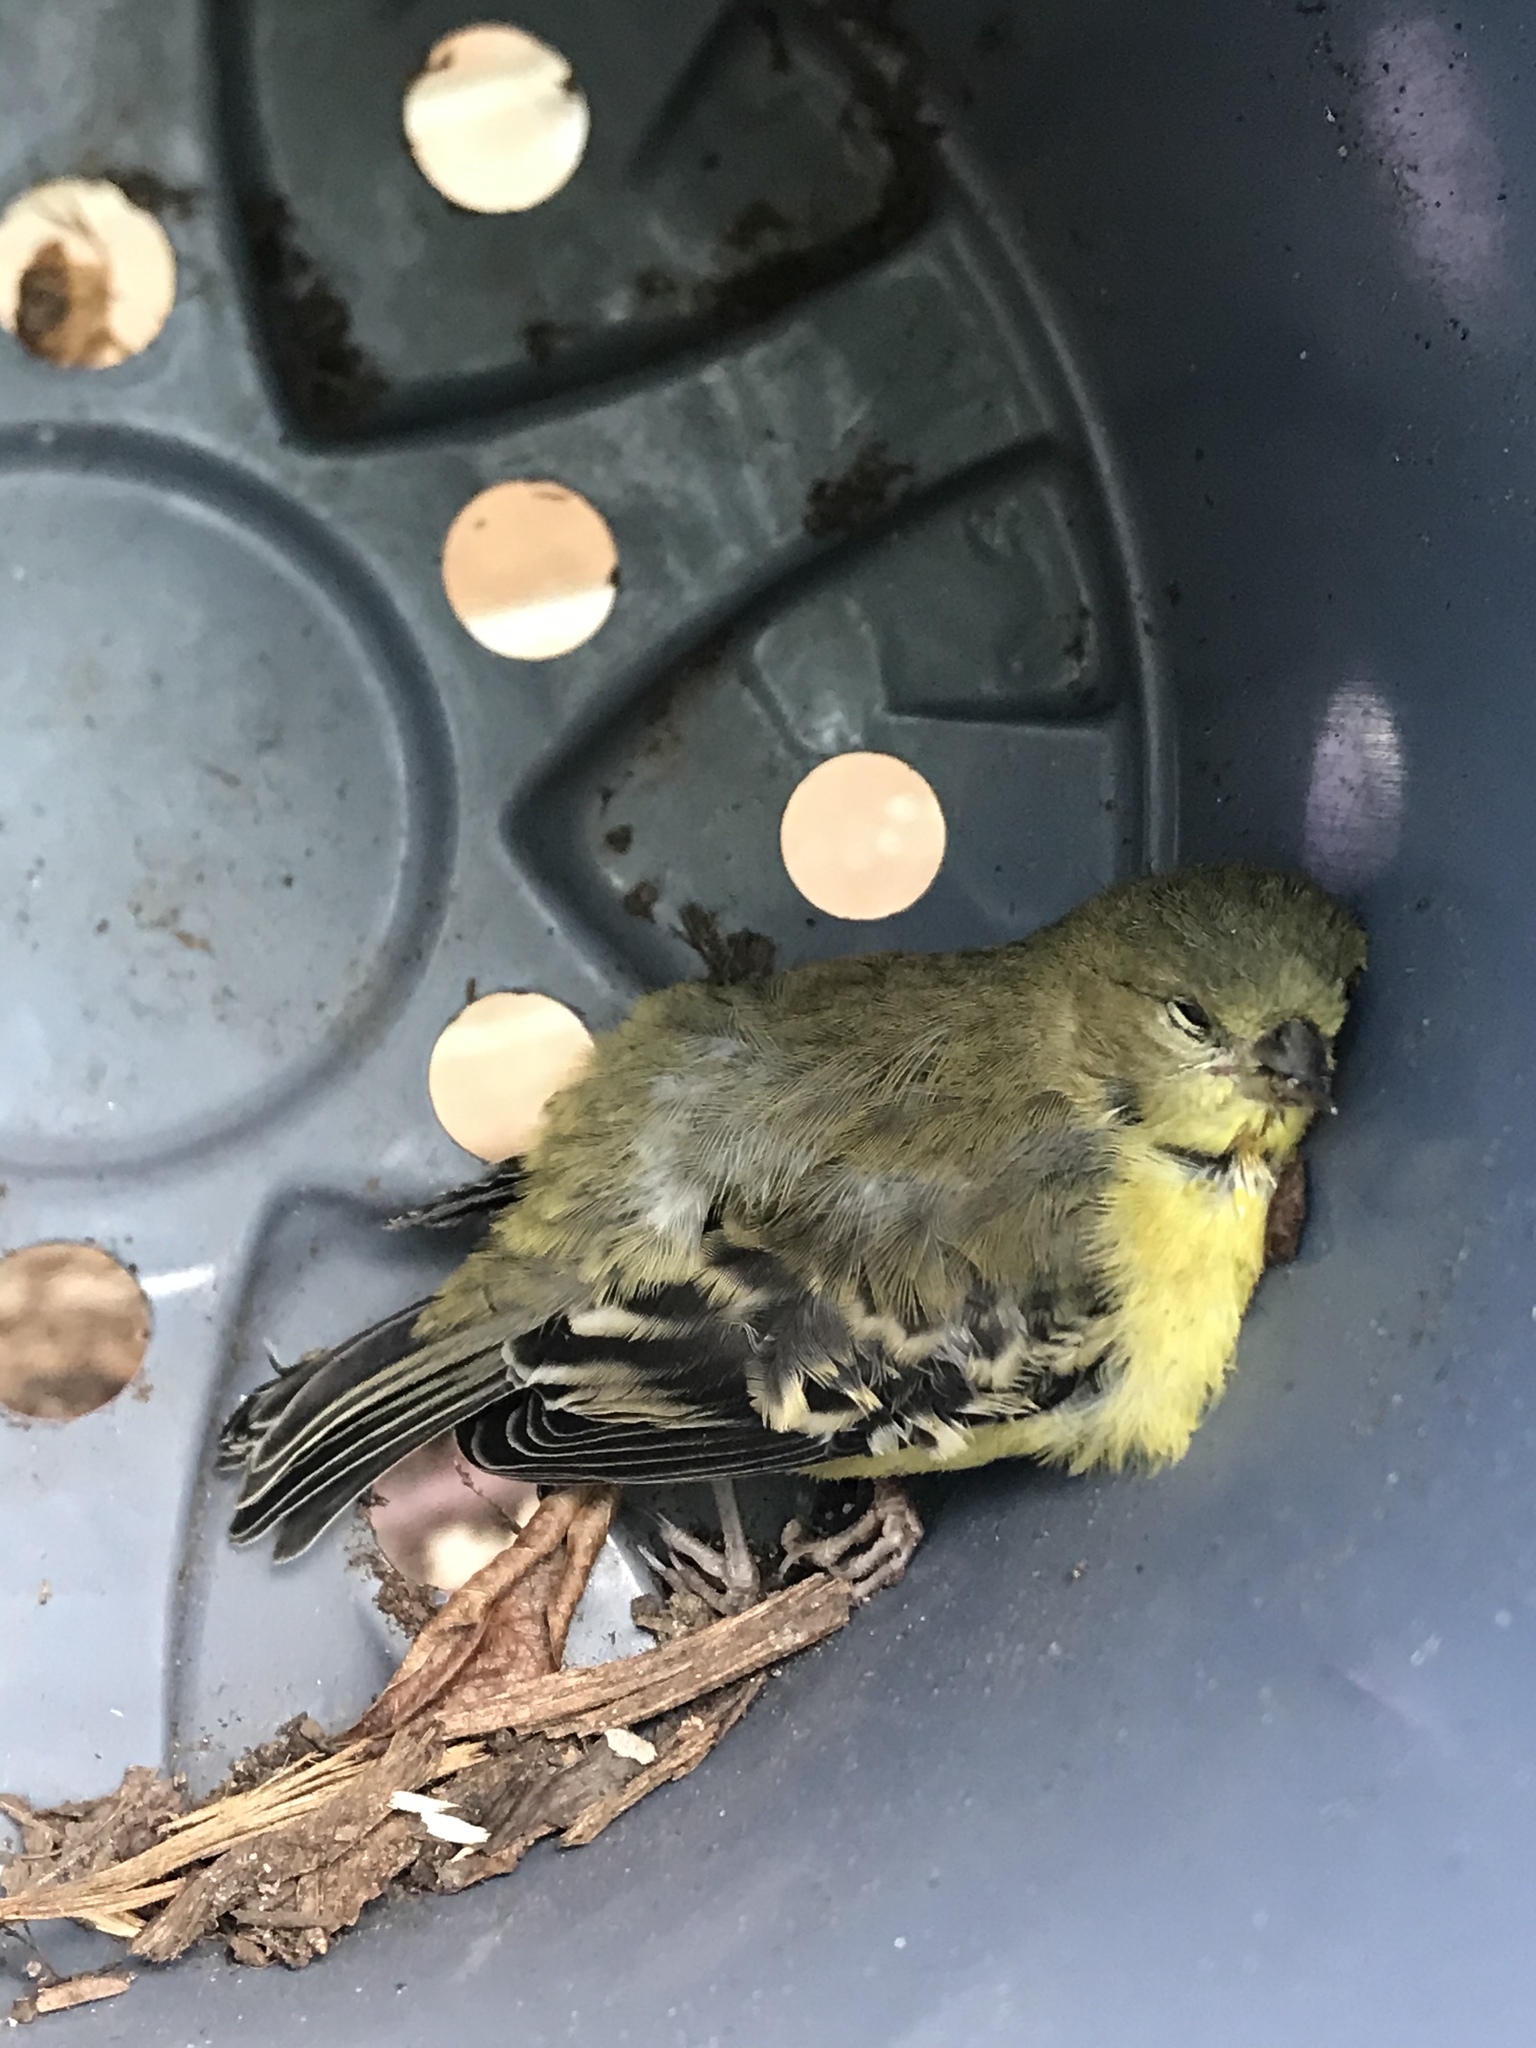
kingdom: Animalia
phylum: Chordata
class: Aves
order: Passeriformes
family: Fringillidae
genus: Spinus
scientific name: Spinus psaltria
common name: Lesser goldfinch
